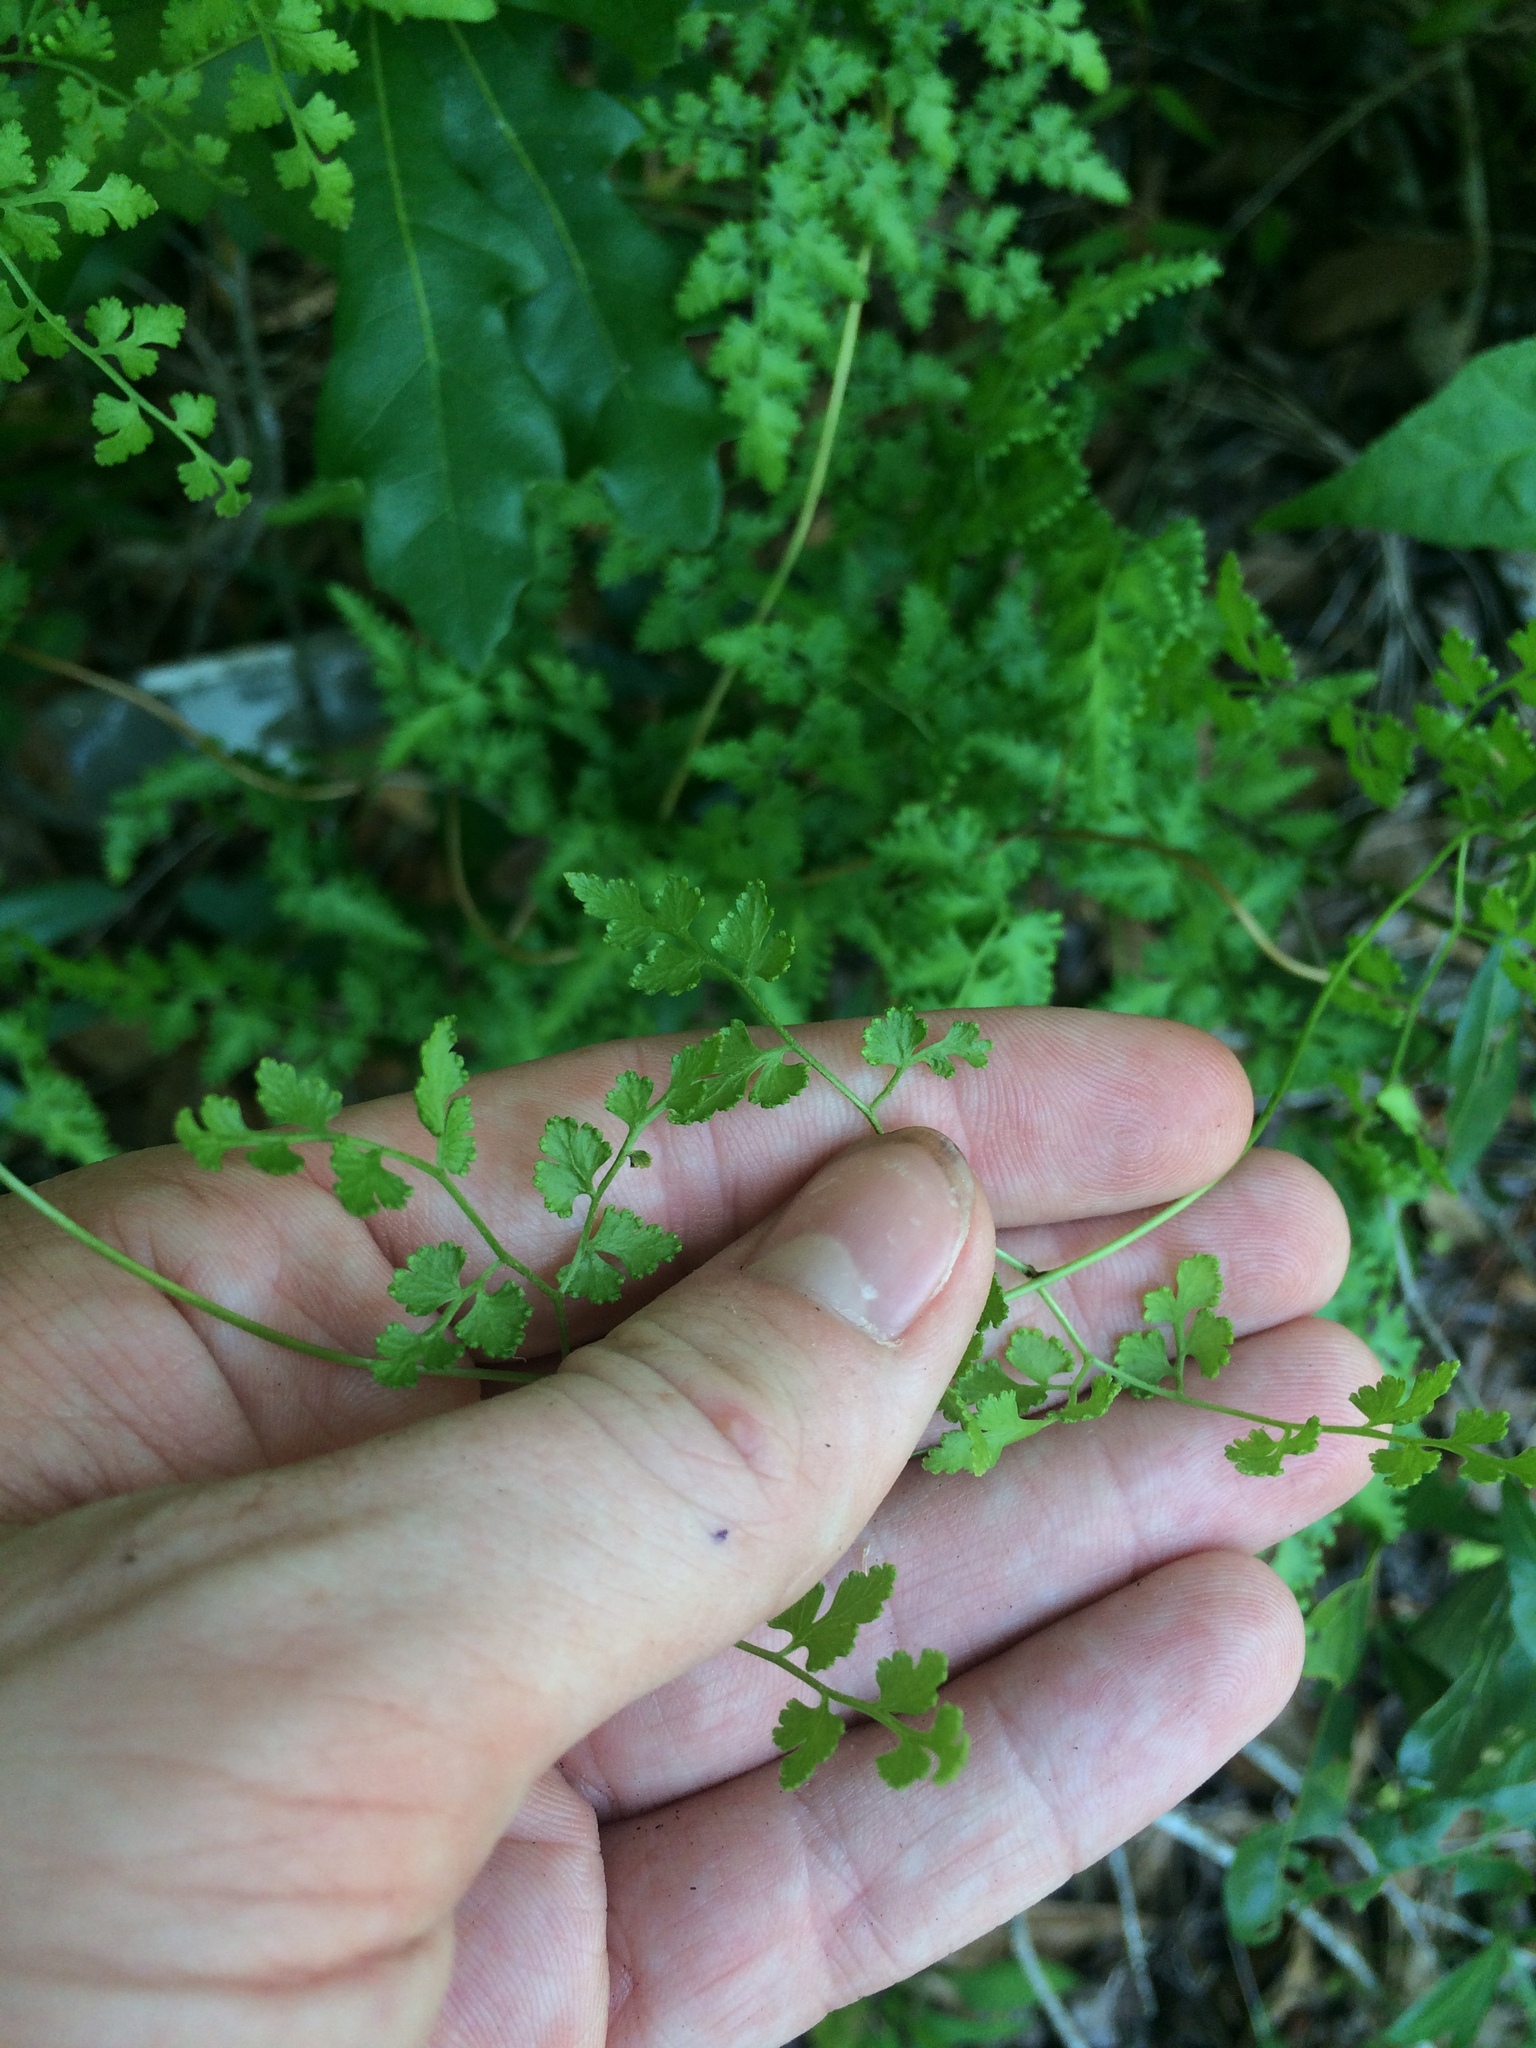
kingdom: Plantae
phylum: Tracheophyta
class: Polypodiopsida
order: Schizaeales
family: Lygodiaceae
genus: Lygodium
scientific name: Lygodium japonicum
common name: Japanese climbing fern
